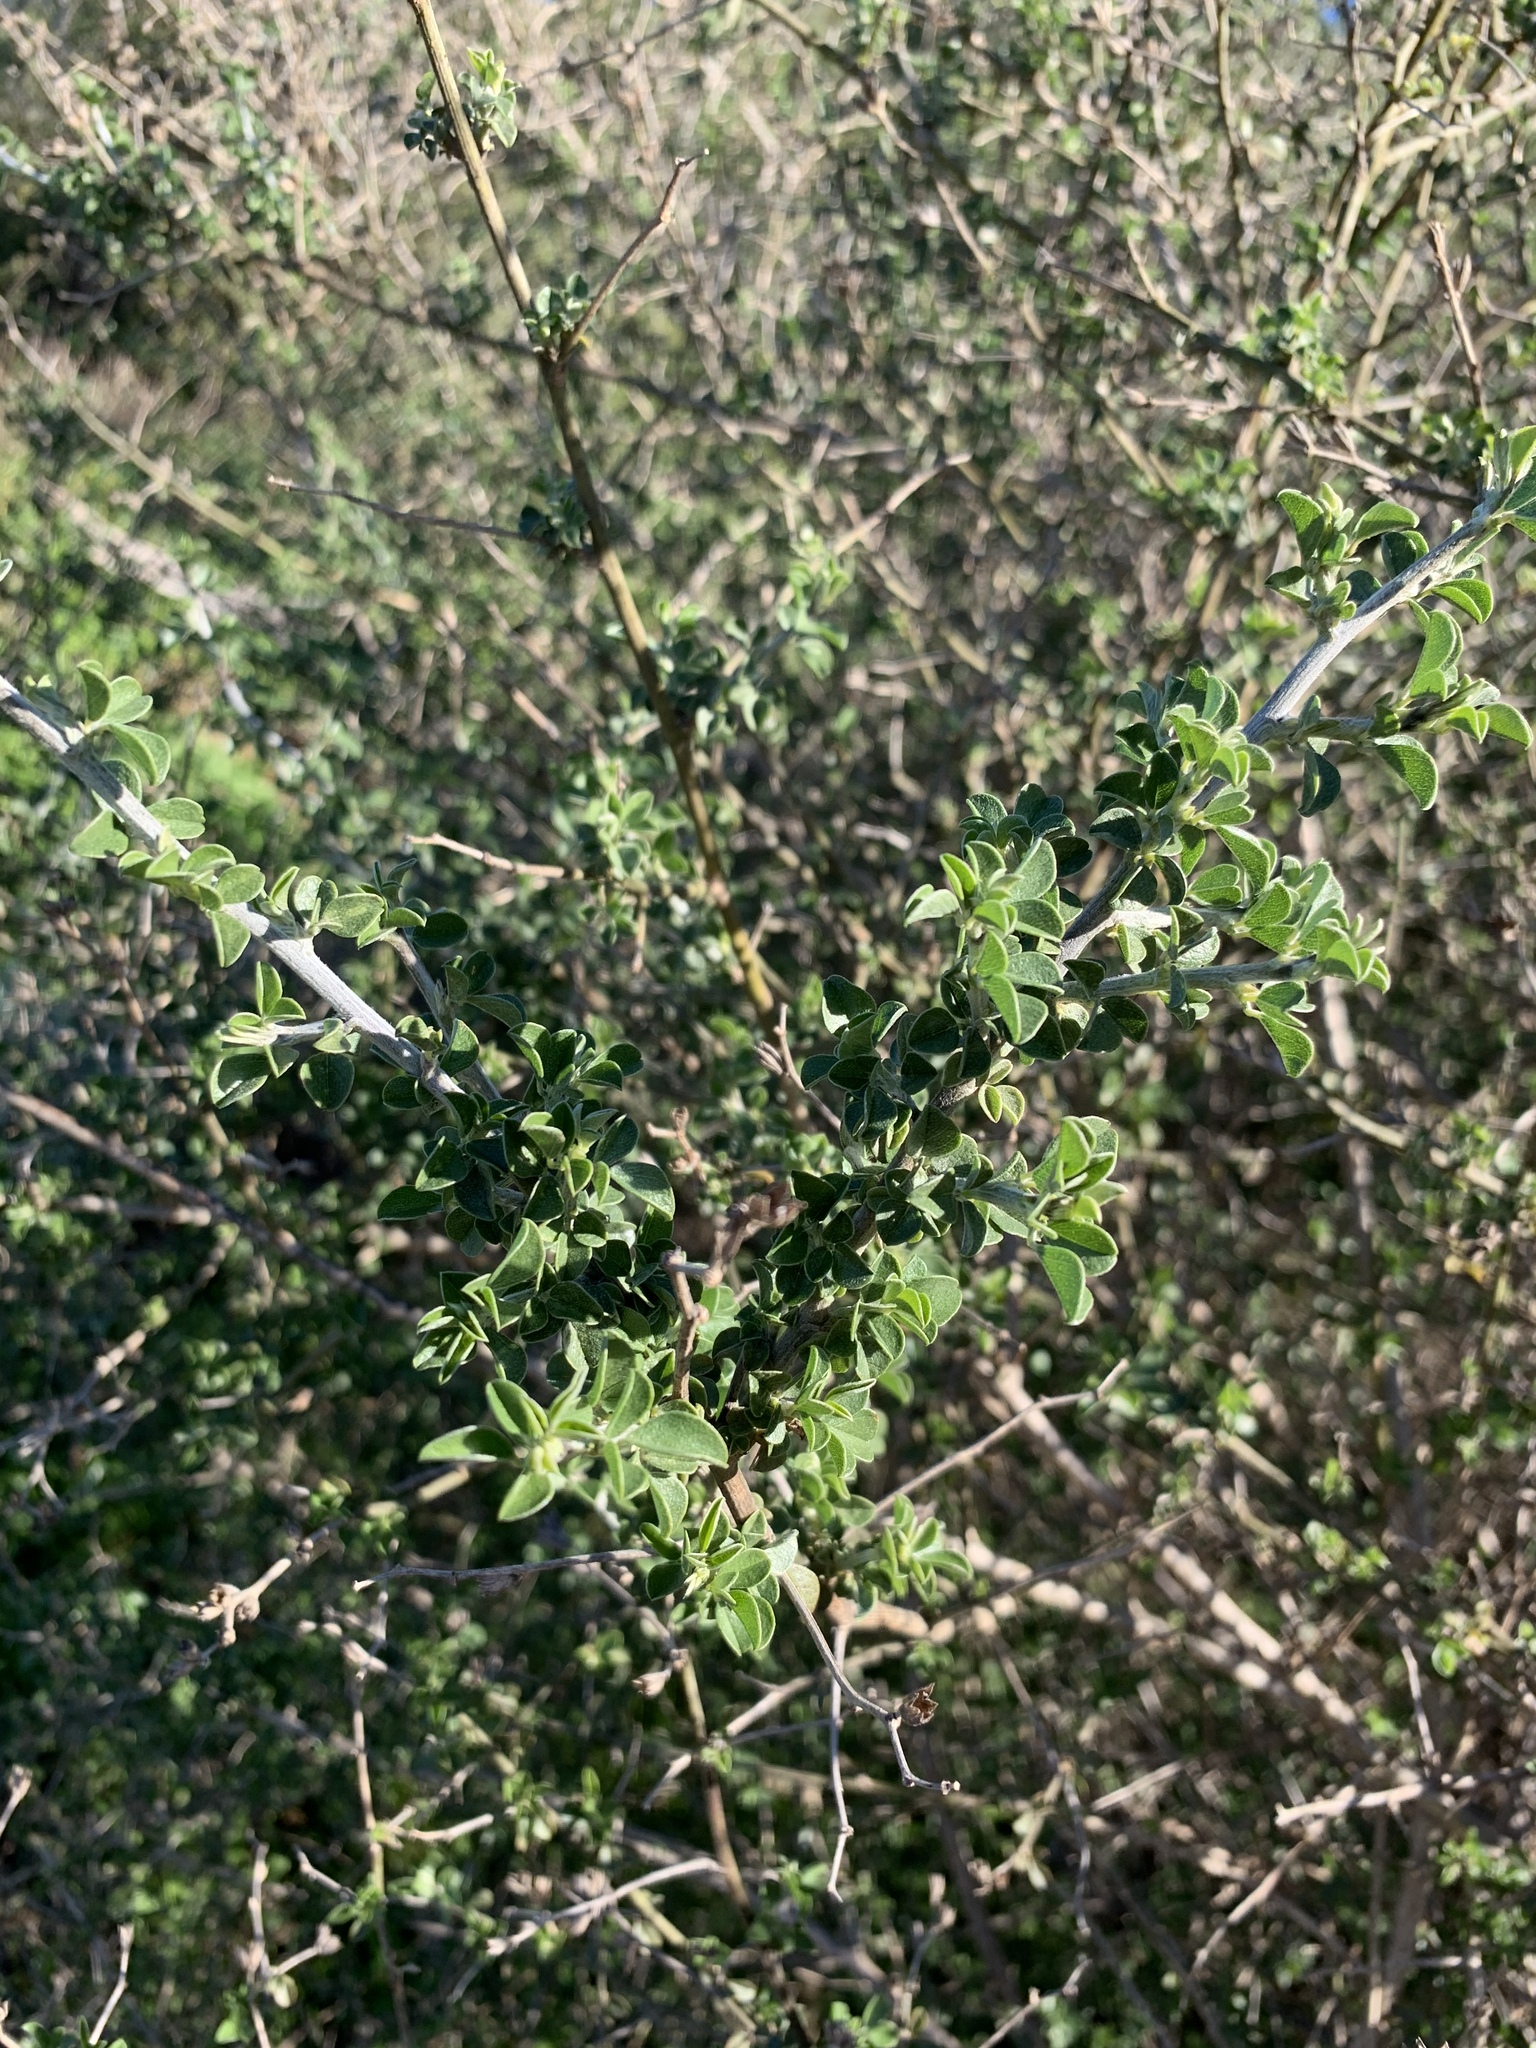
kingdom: Plantae
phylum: Tracheophyta
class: Magnoliopsida
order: Fabales
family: Fabaceae
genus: Psoralea
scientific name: Psoralea hirta
